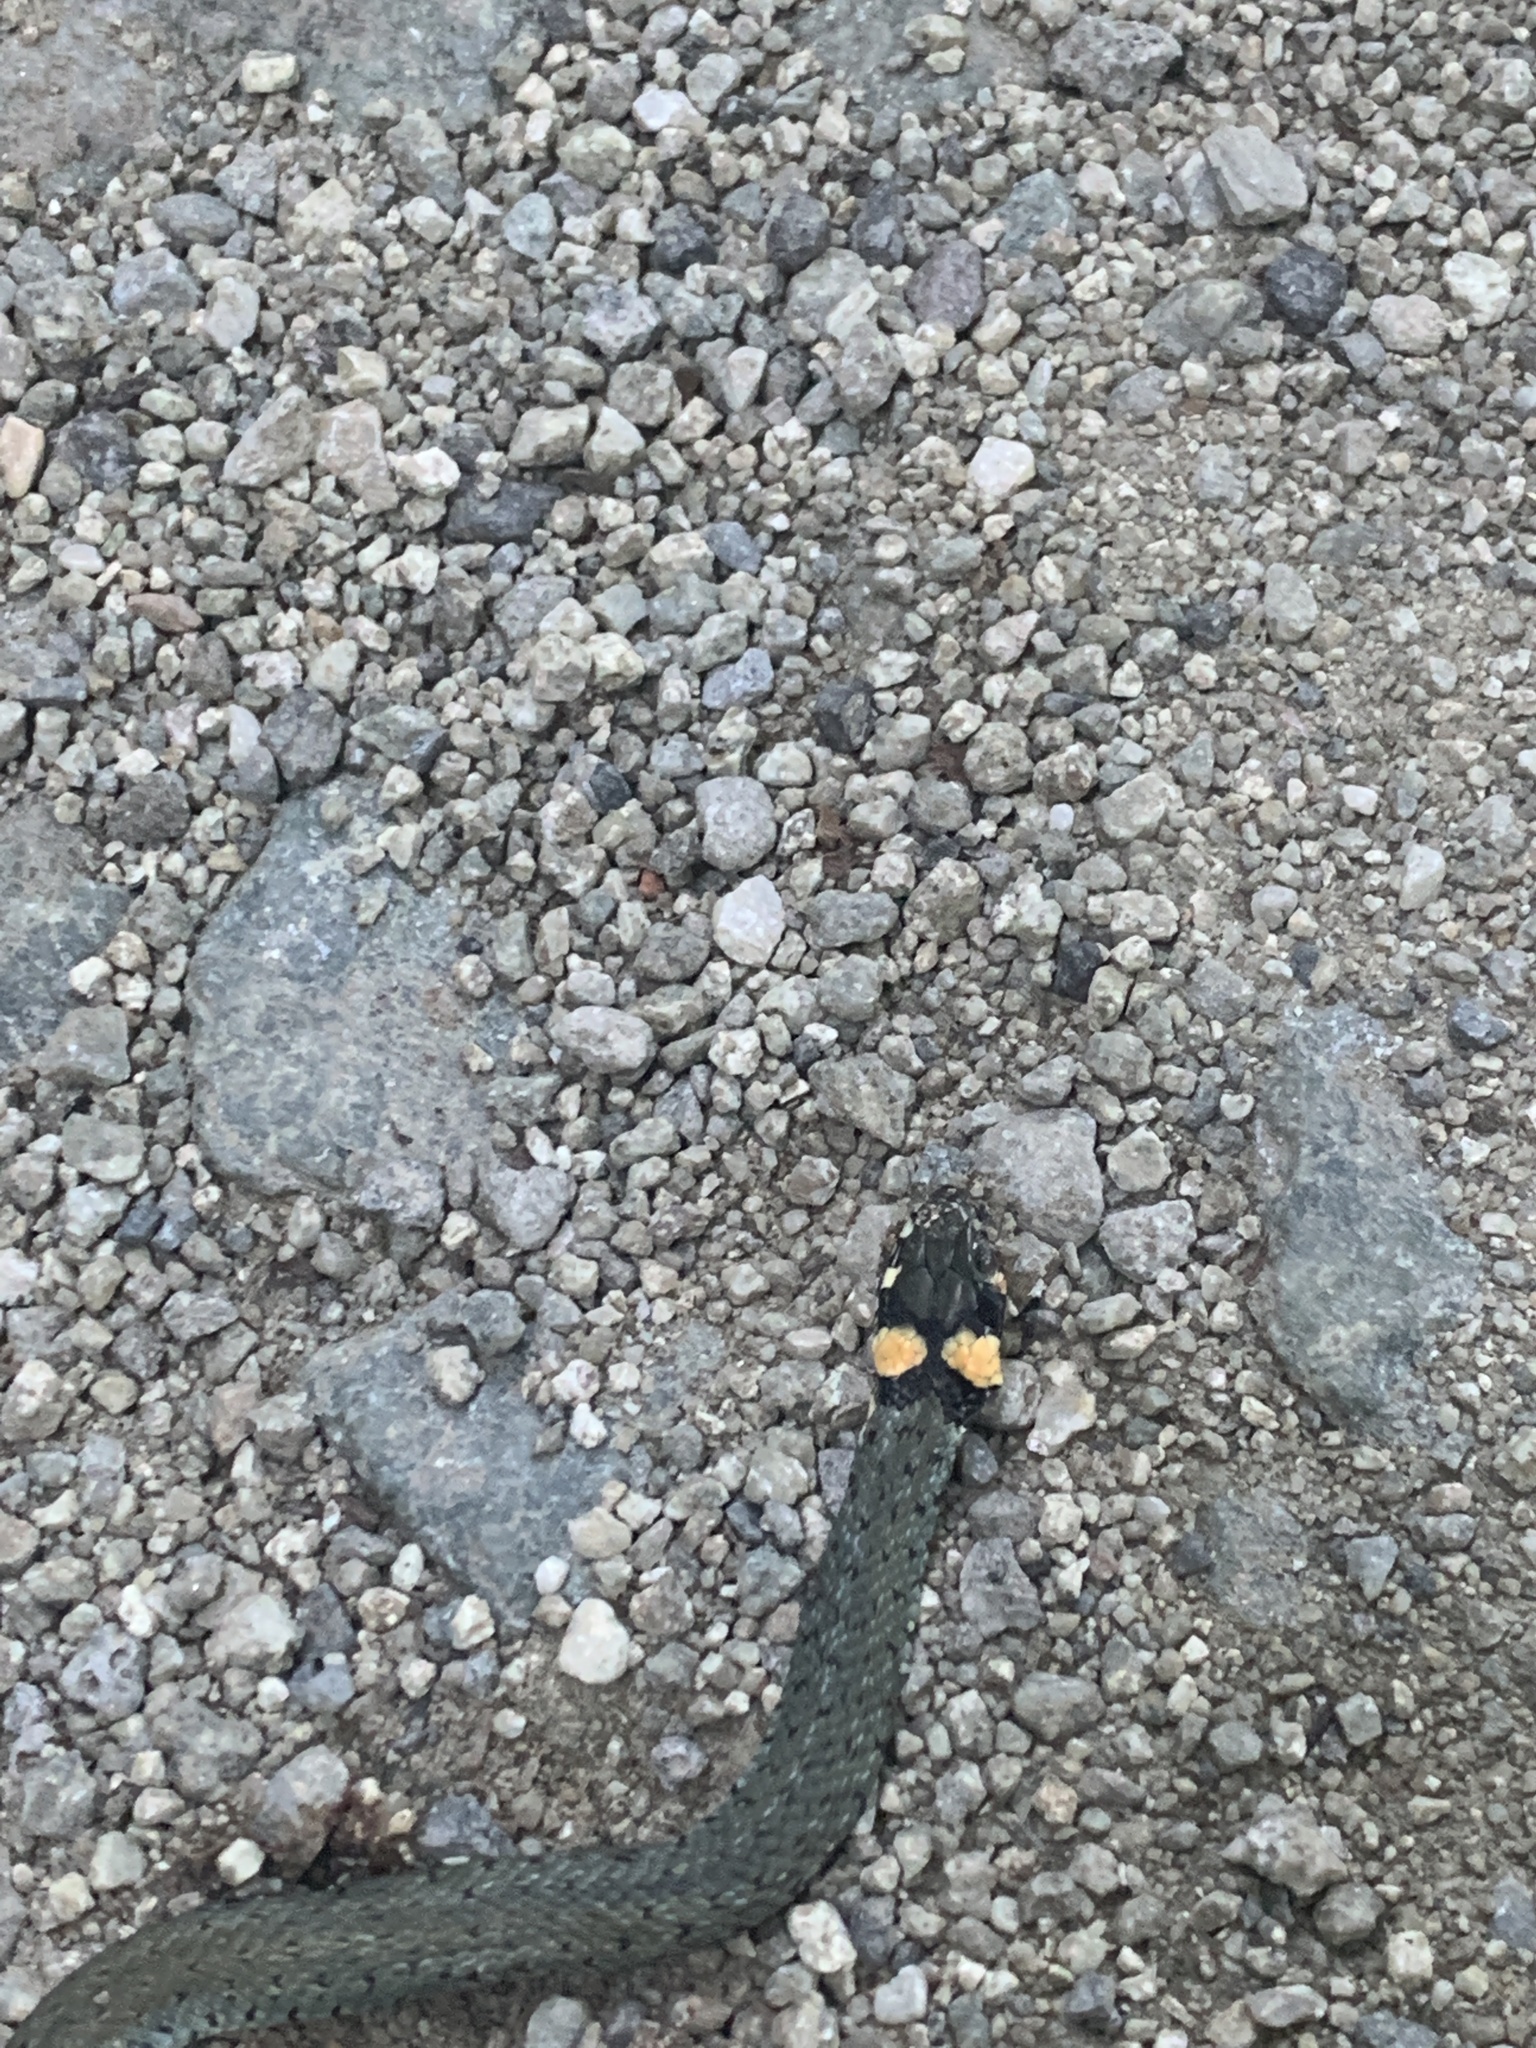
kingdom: Animalia
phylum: Chordata
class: Squamata
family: Colubridae
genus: Natrix
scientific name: Natrix natrix
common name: Grass snake
